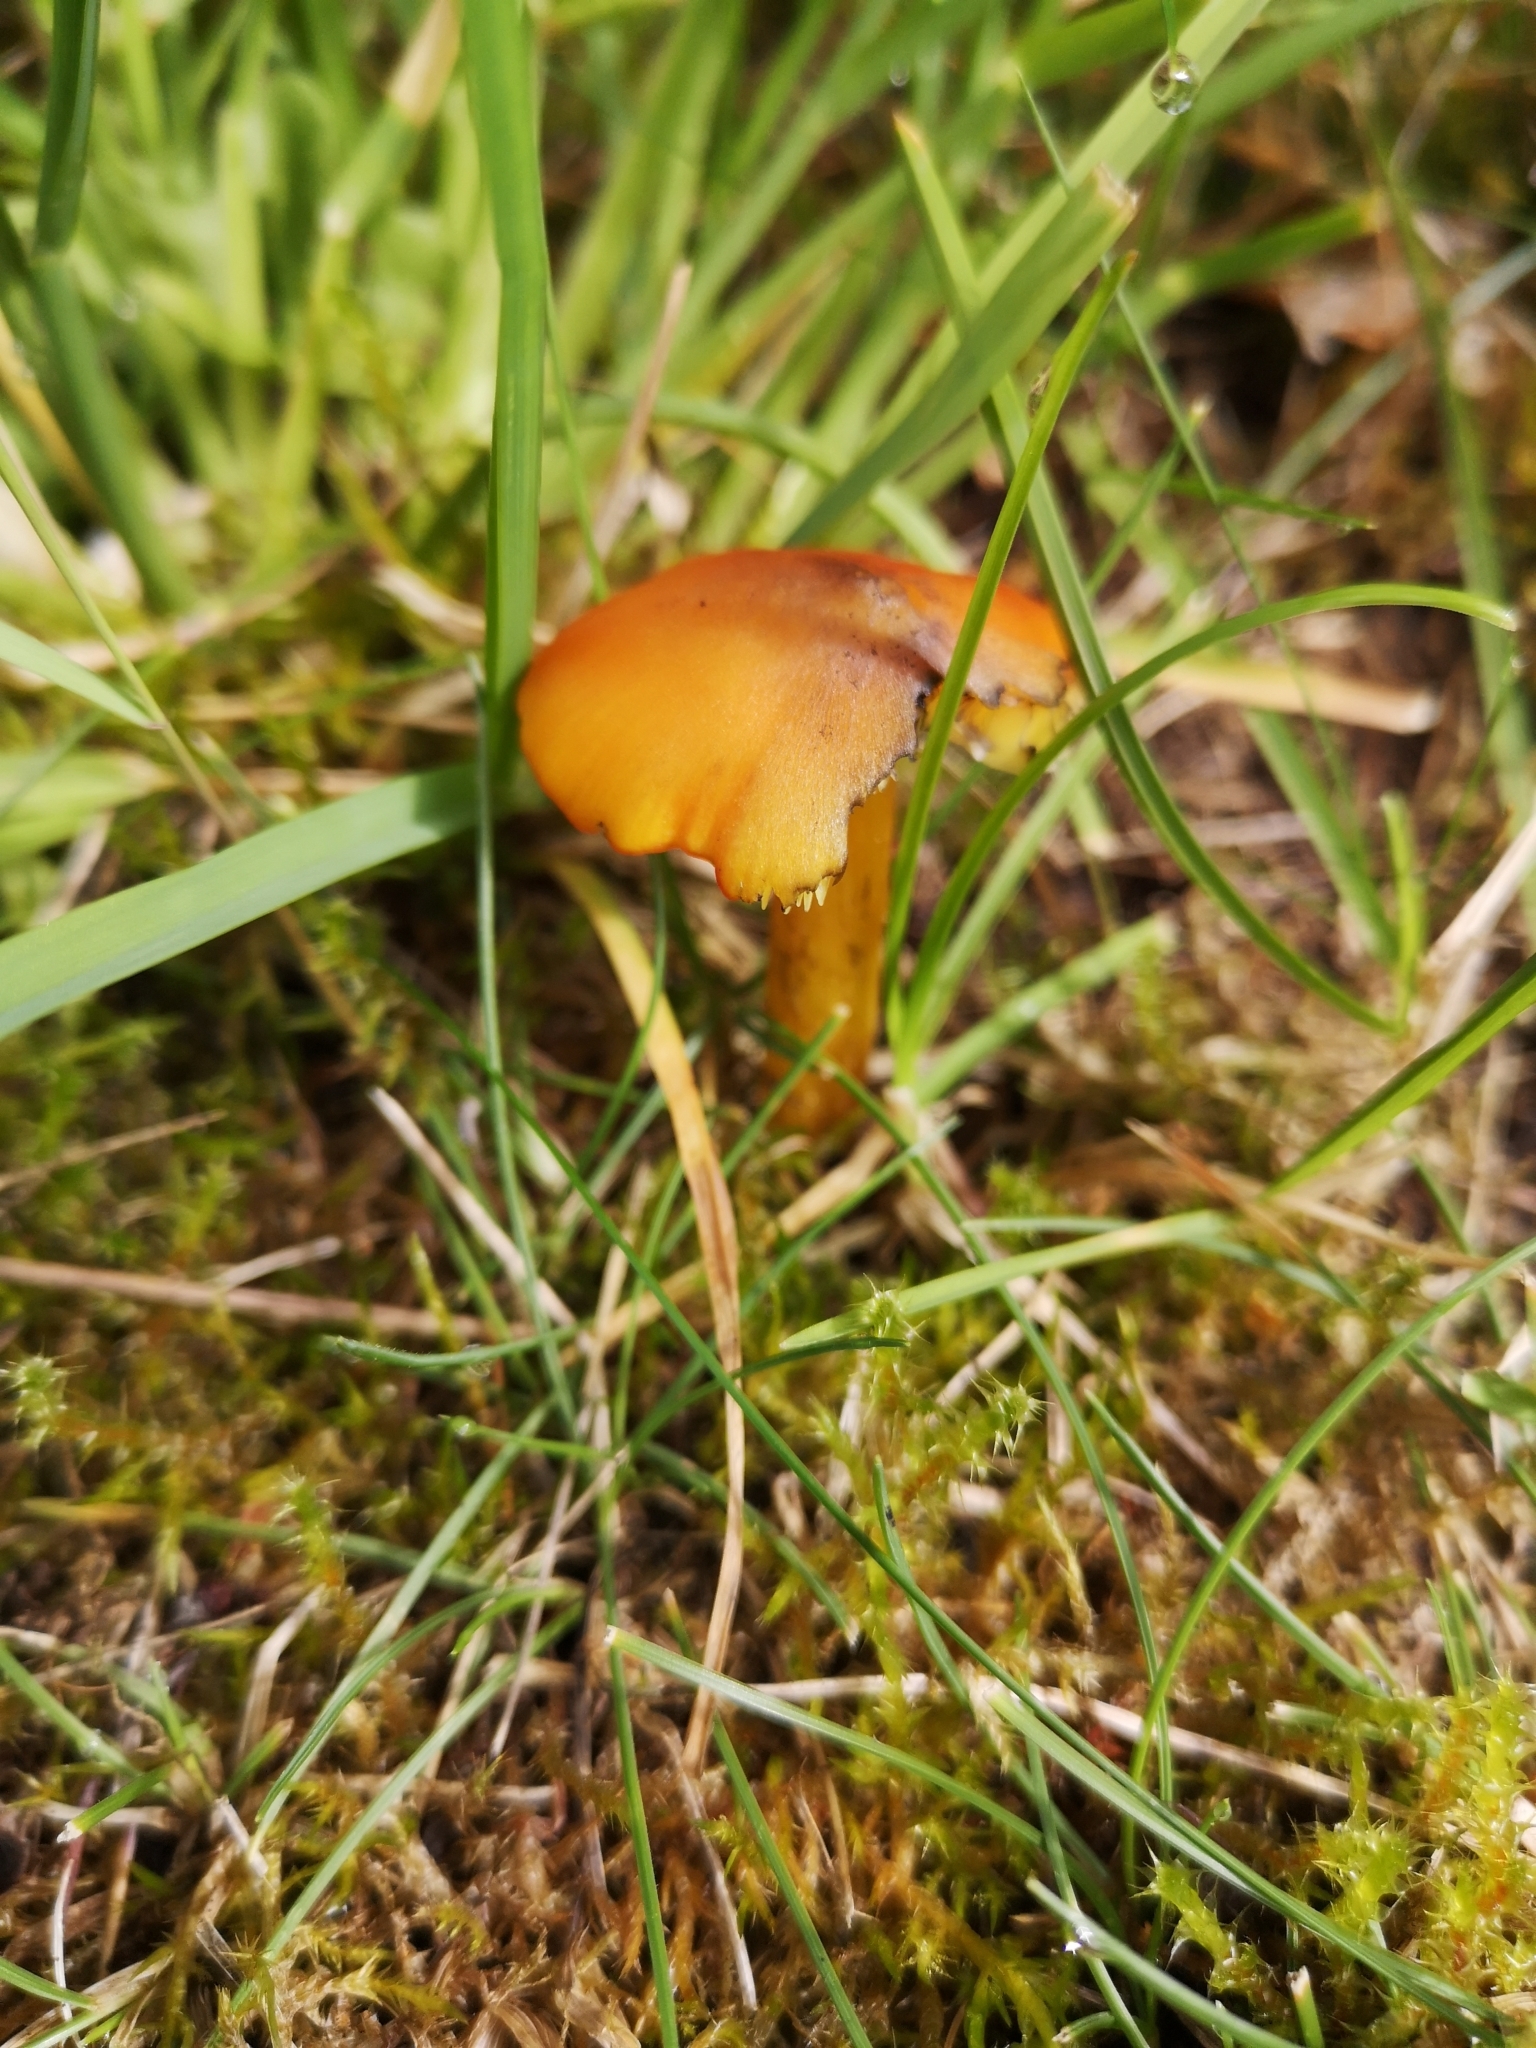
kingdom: Fungi
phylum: Basidiomycota
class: Agaricomycetes
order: Agaricales
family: Hygrophoraceae
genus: Hygrocybe
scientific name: Hygrocybe conica
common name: Blackening wax-cap
